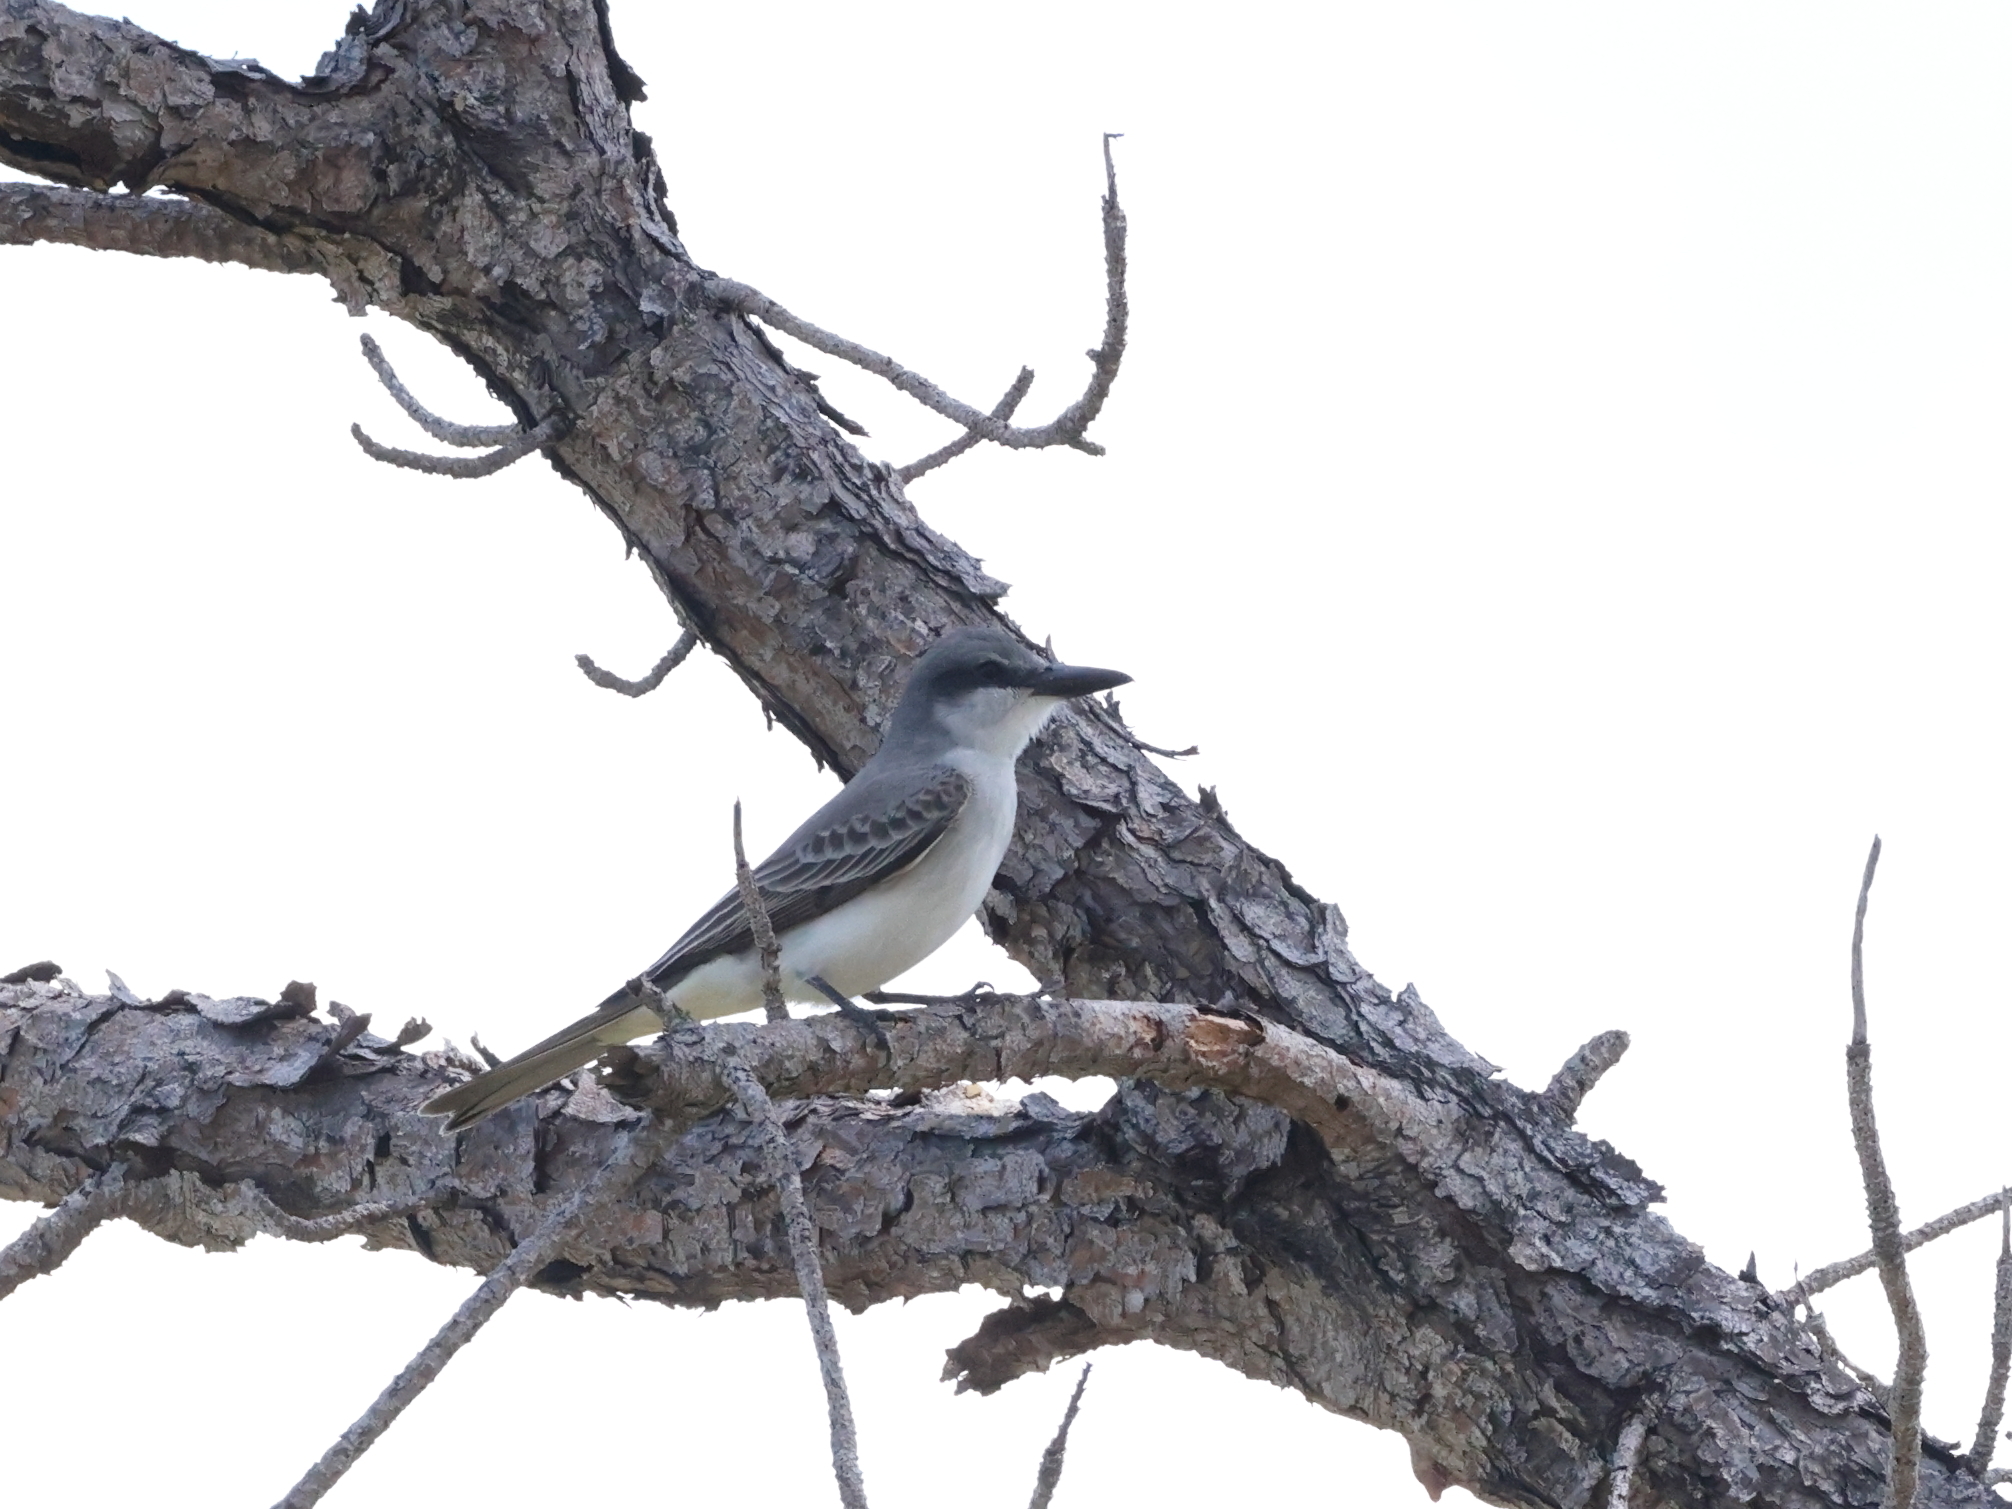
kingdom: Animalia
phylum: Chordata
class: Aves
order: Passeriformes
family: Tyrannidae
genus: Tyrannus
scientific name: Tyrannus dominicensis
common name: Gray kingbird
